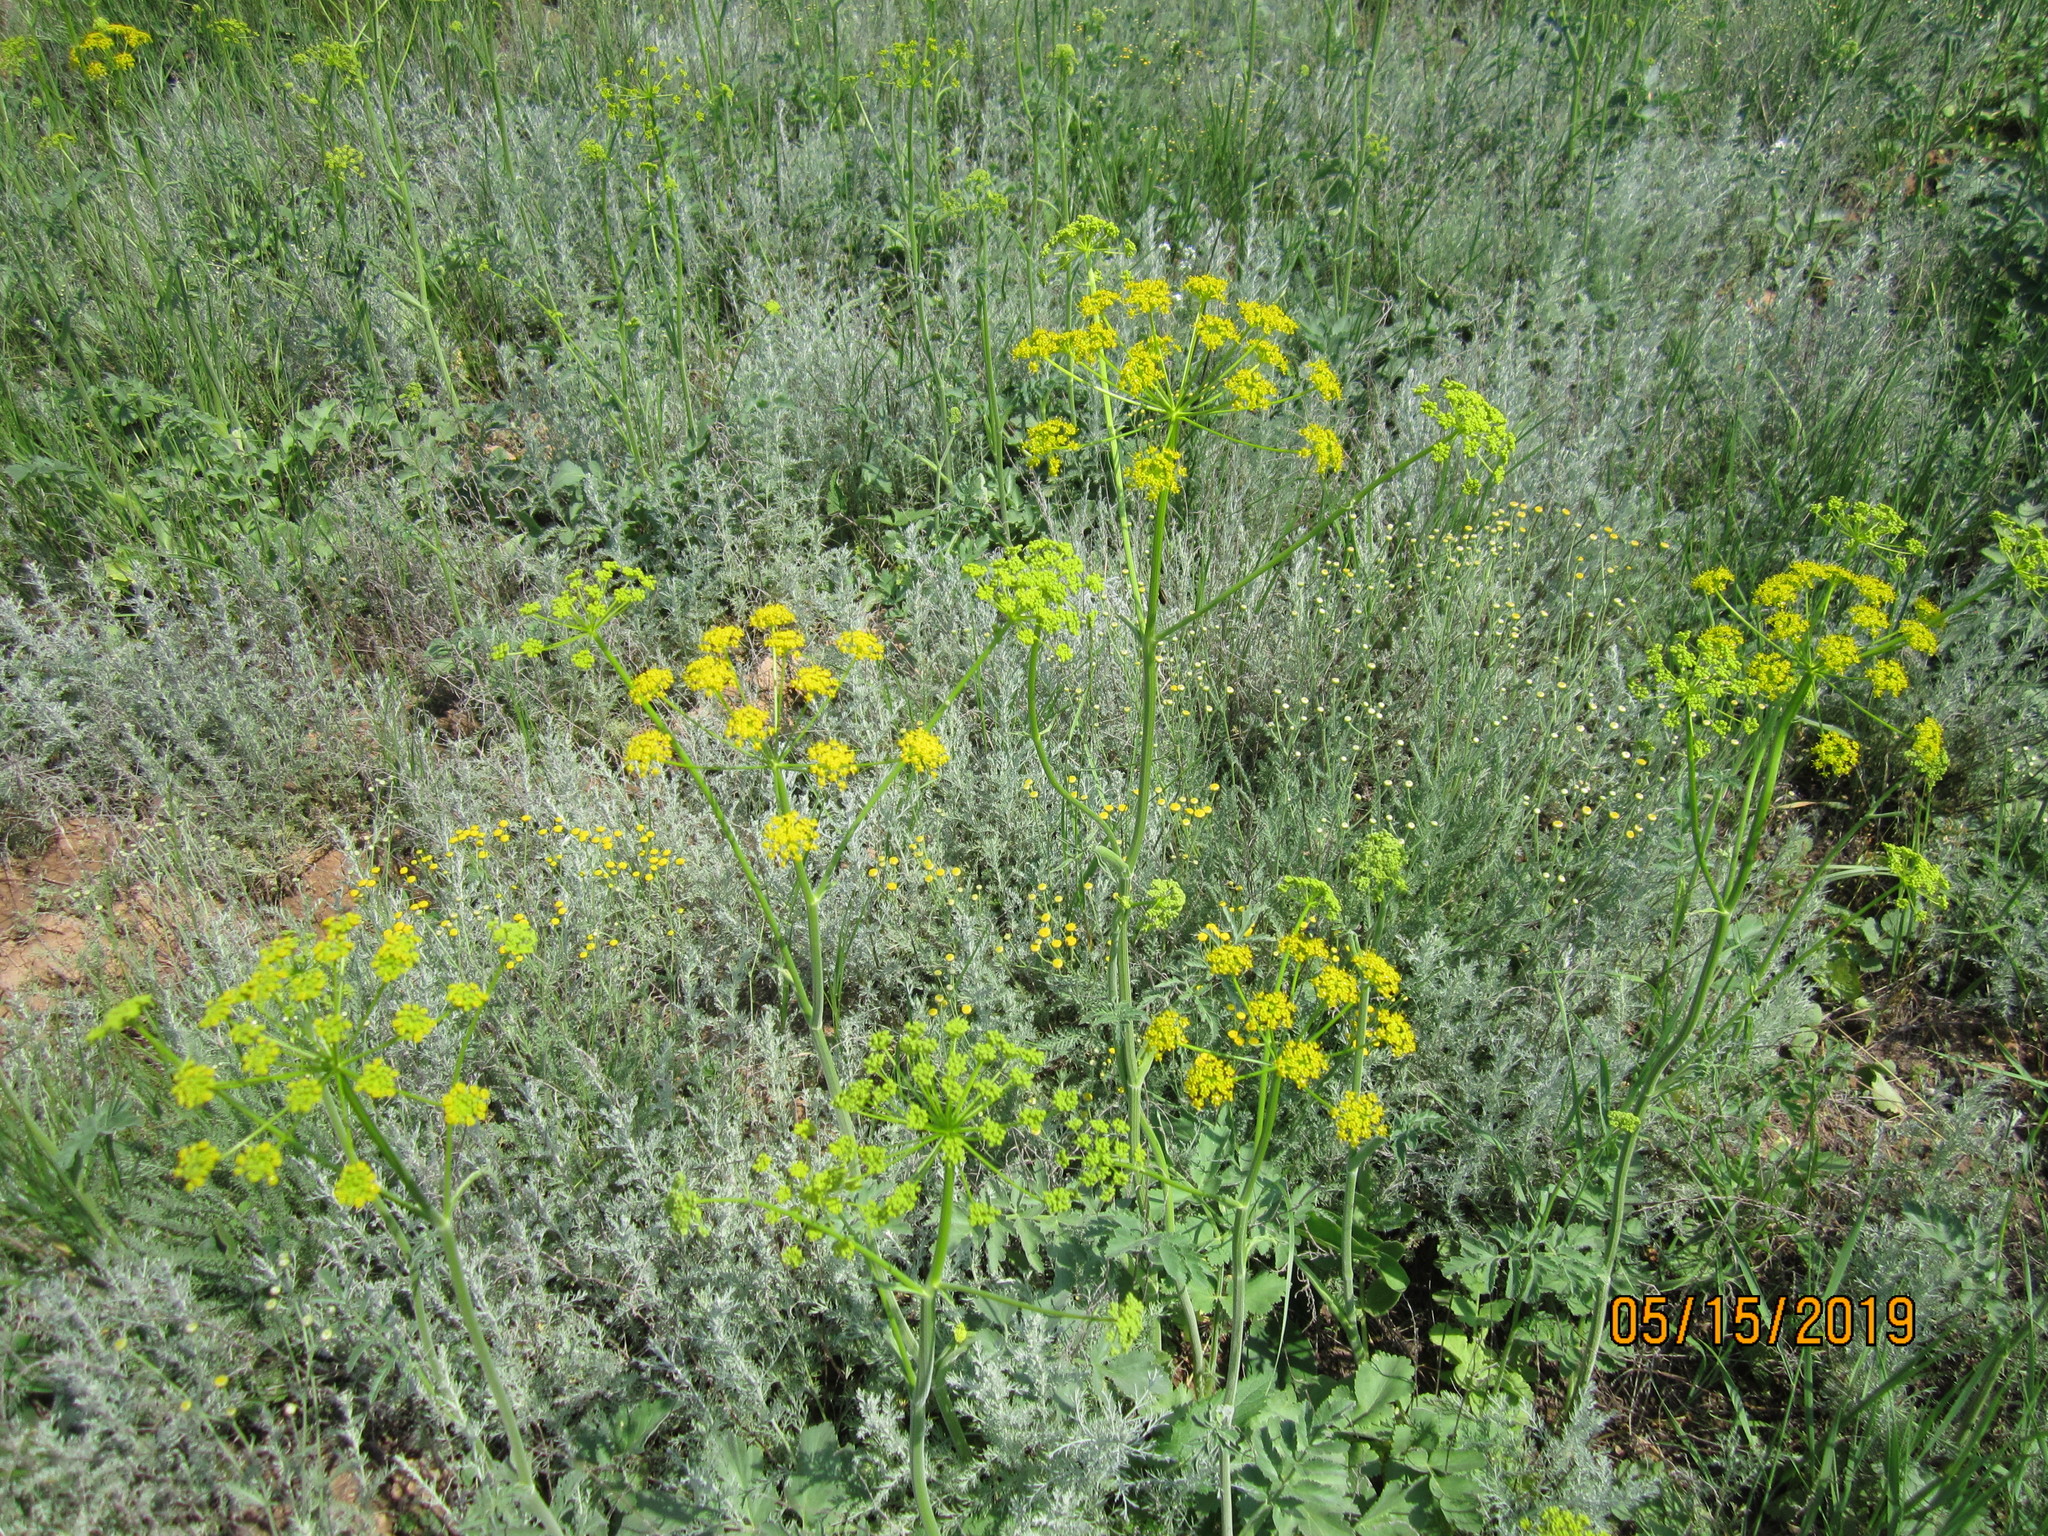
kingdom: Plantae
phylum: Tracheophyta
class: Magnoliopsida
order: Apiales
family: Apiaceae
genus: Pastinaca
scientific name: Pastinaca clausii
